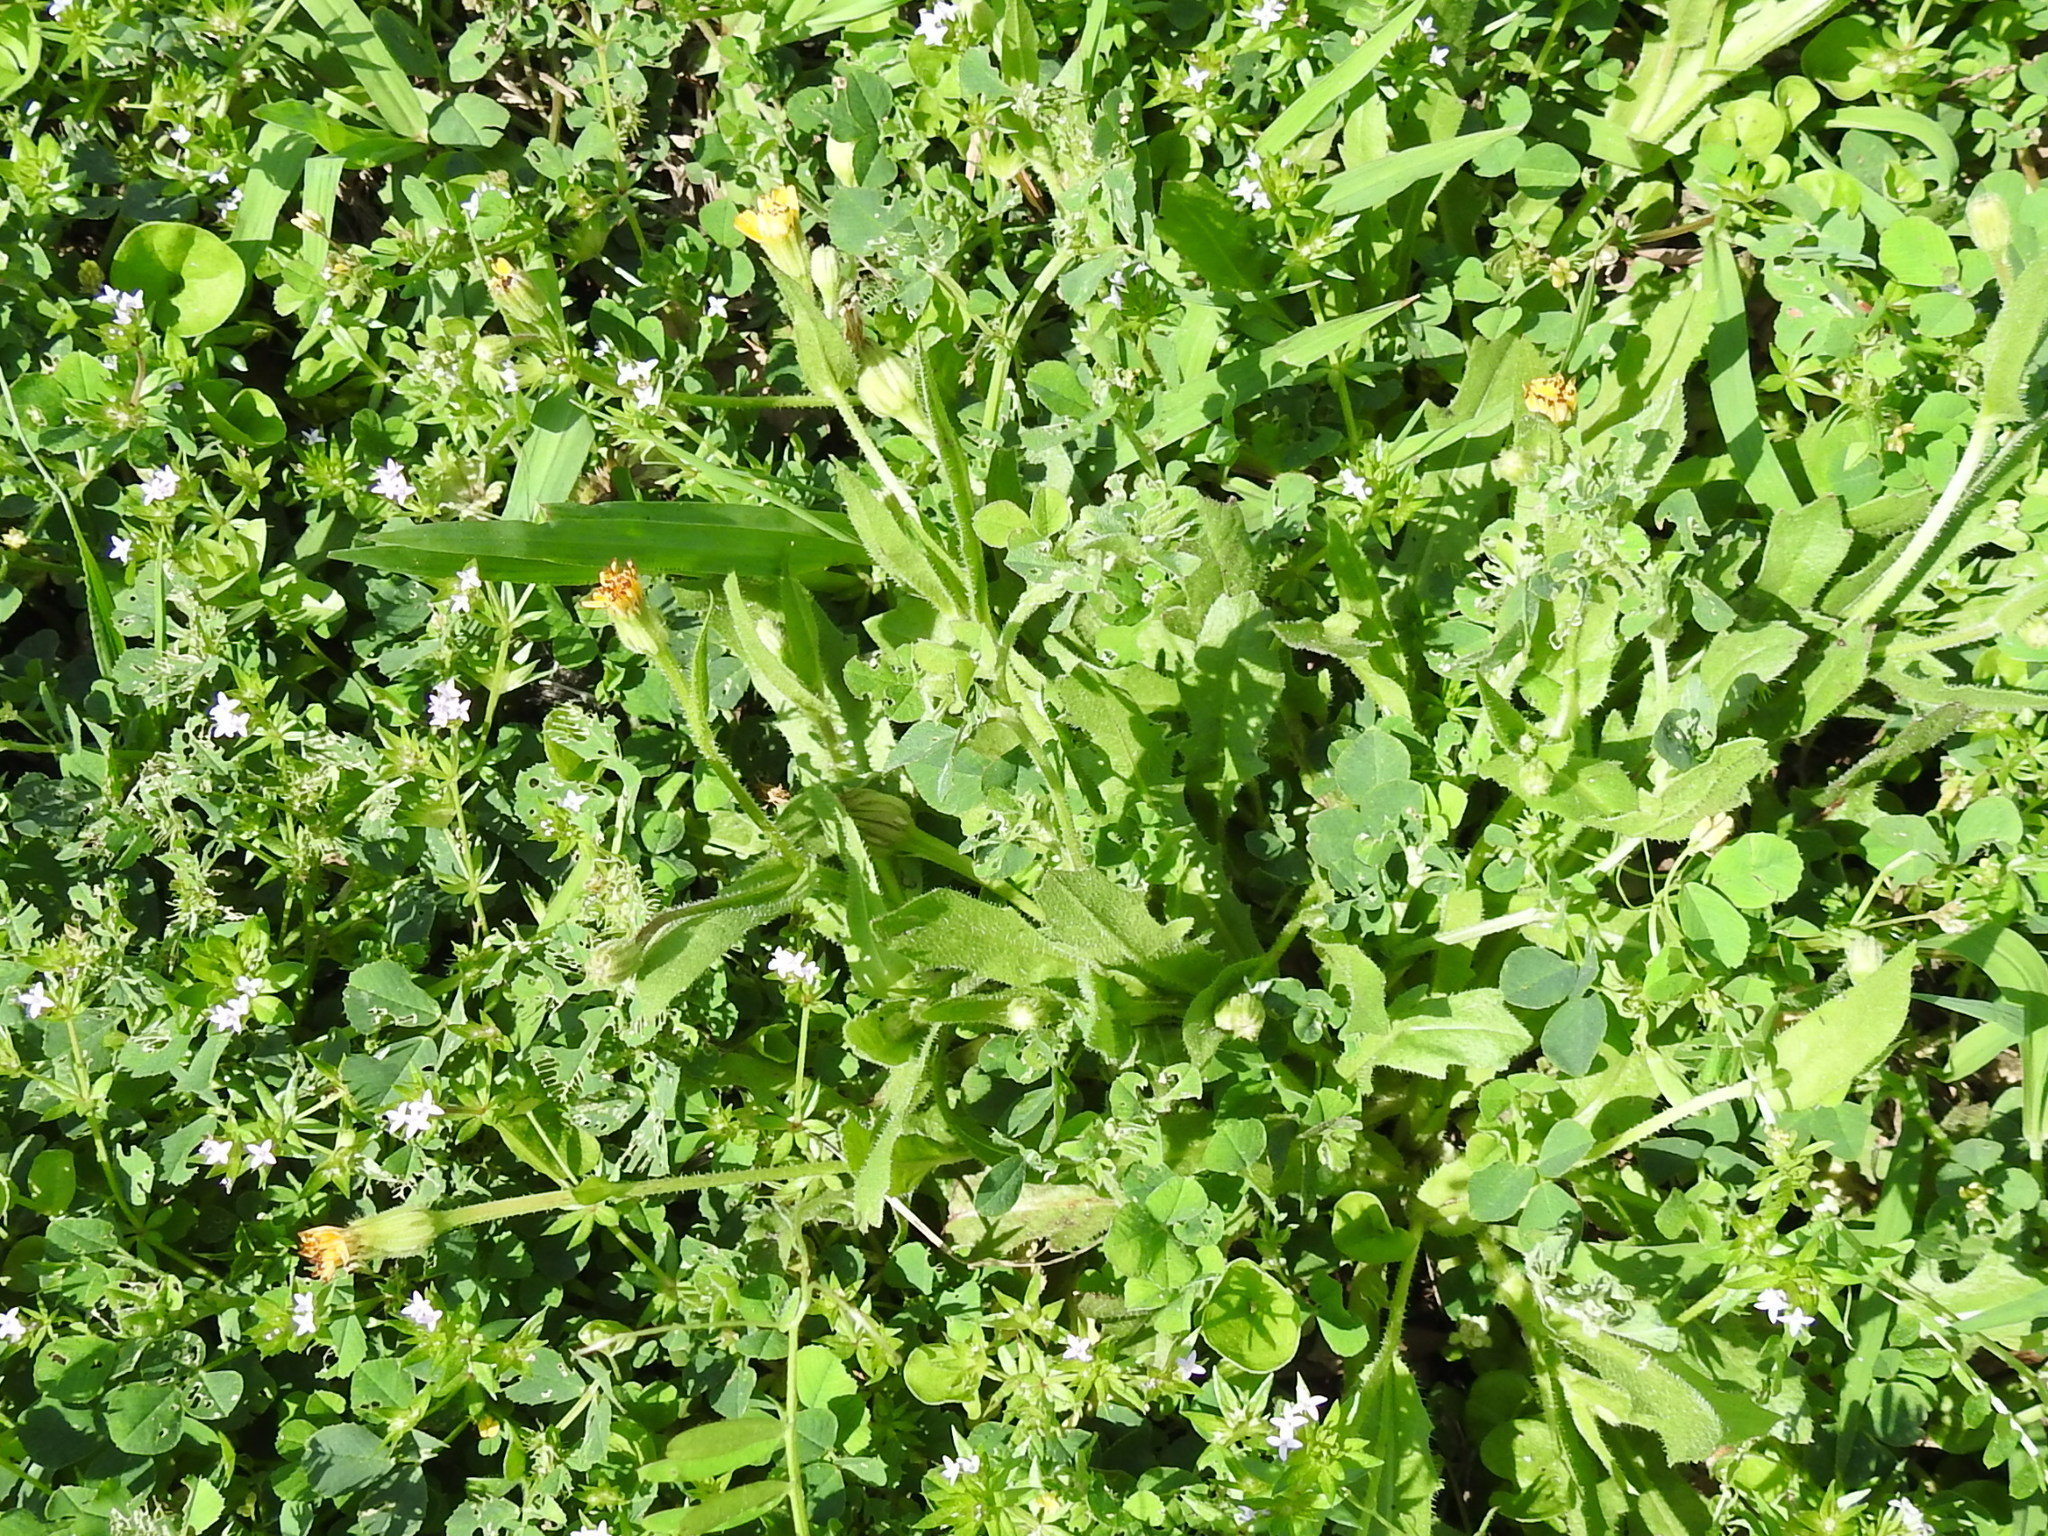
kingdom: Plantae
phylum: Tracheophyta
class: Magnoliopsida
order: Asterales
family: Asteraceae
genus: Hedypnois
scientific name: Hedypnois rhagadioloides
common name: Cretan weed
